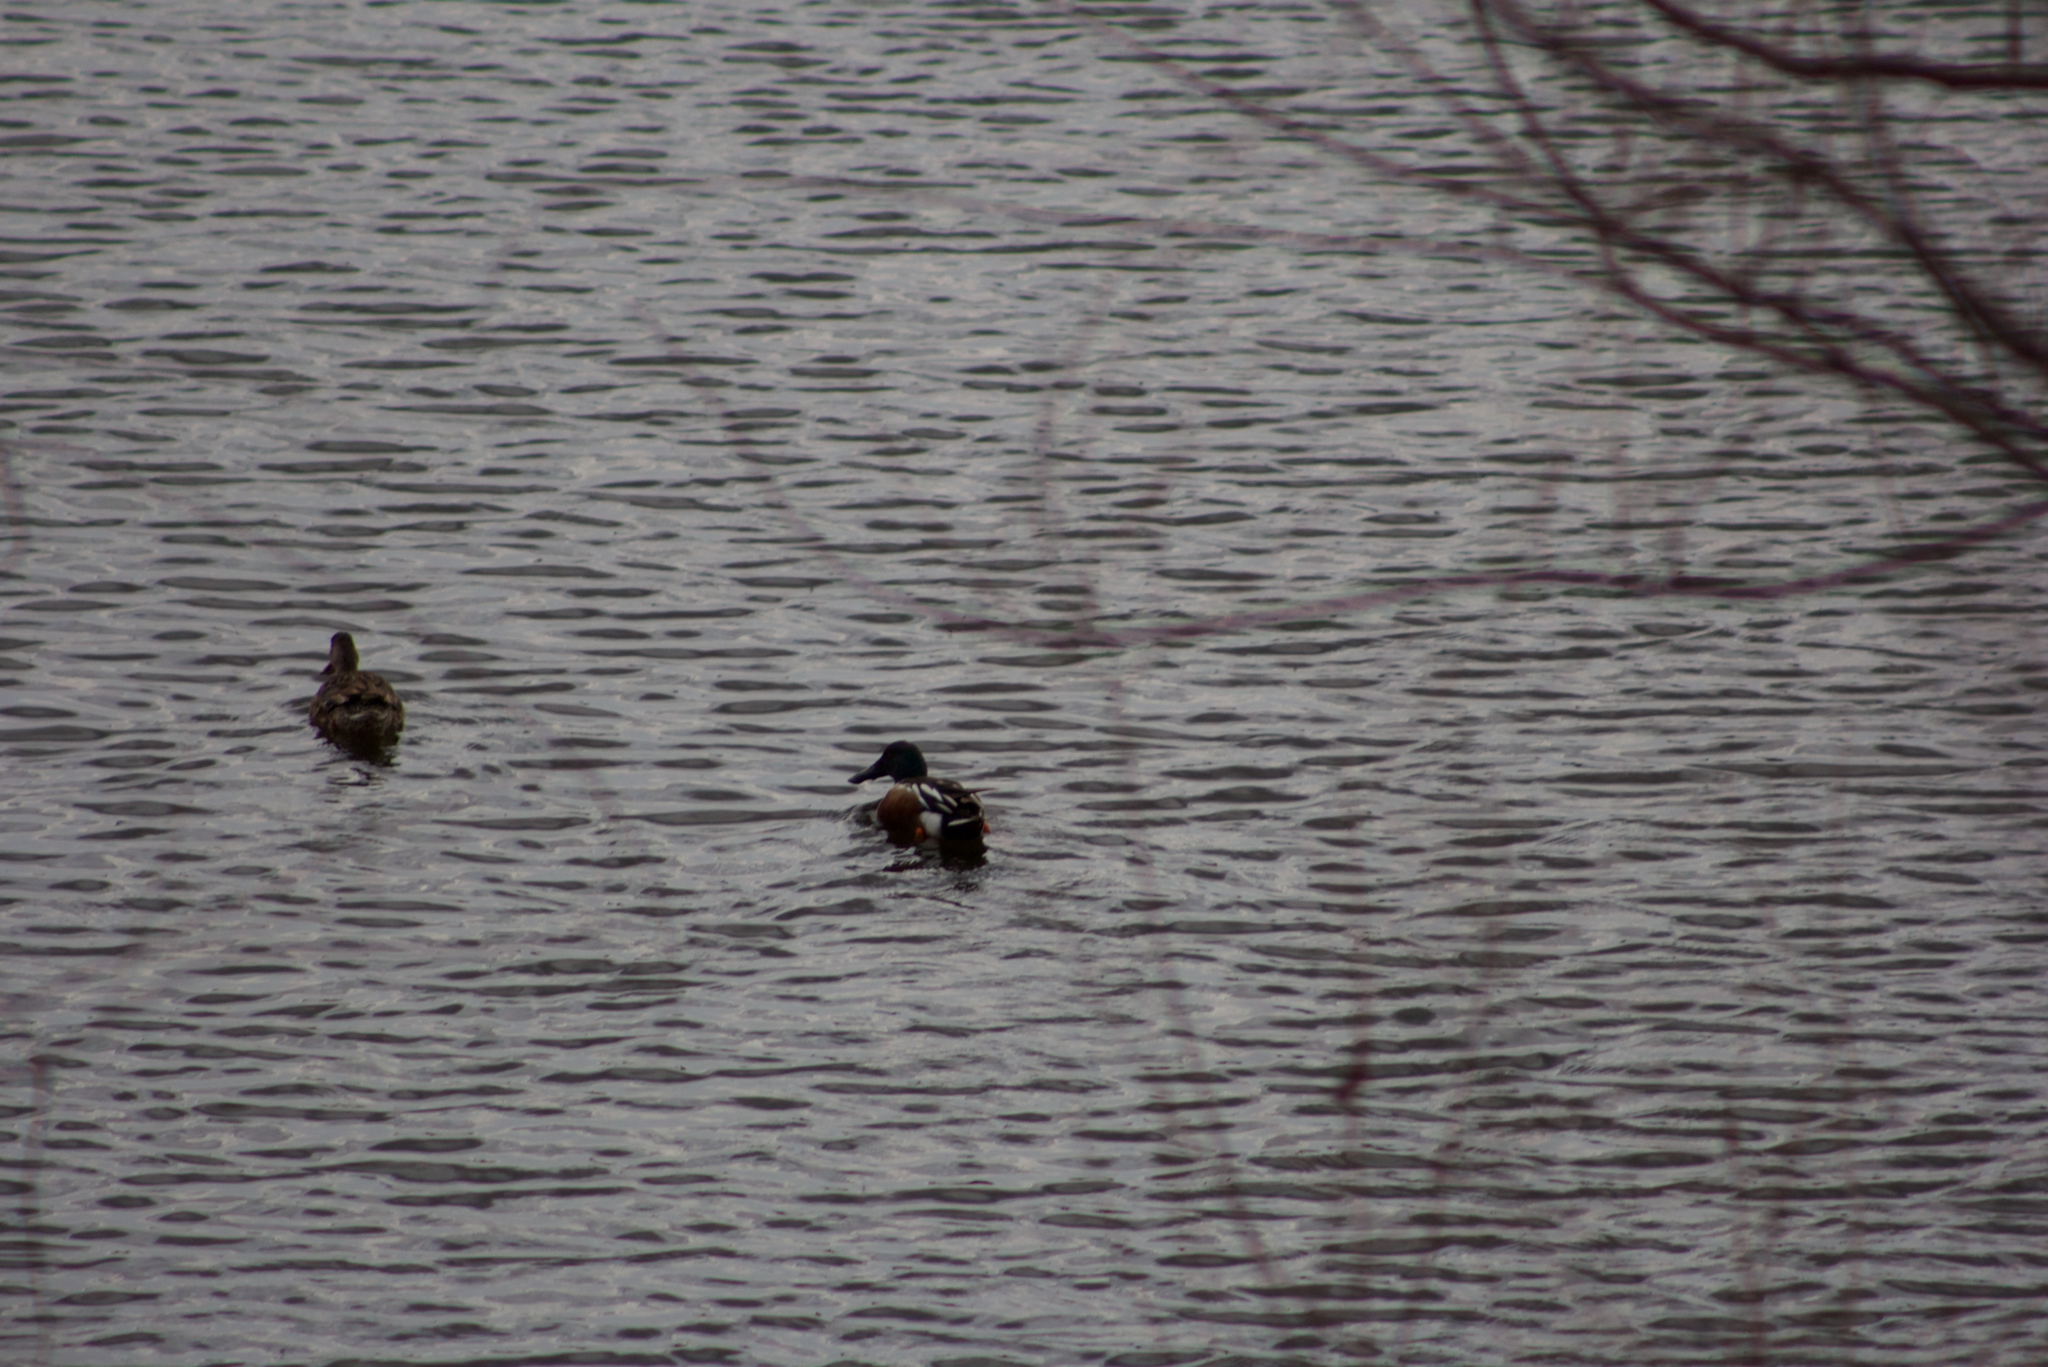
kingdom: Animalia
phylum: Chordata
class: Aves
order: Anseriformes
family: Anatidae
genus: Spatula
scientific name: Spatula clypeata
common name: Northern shoveler
